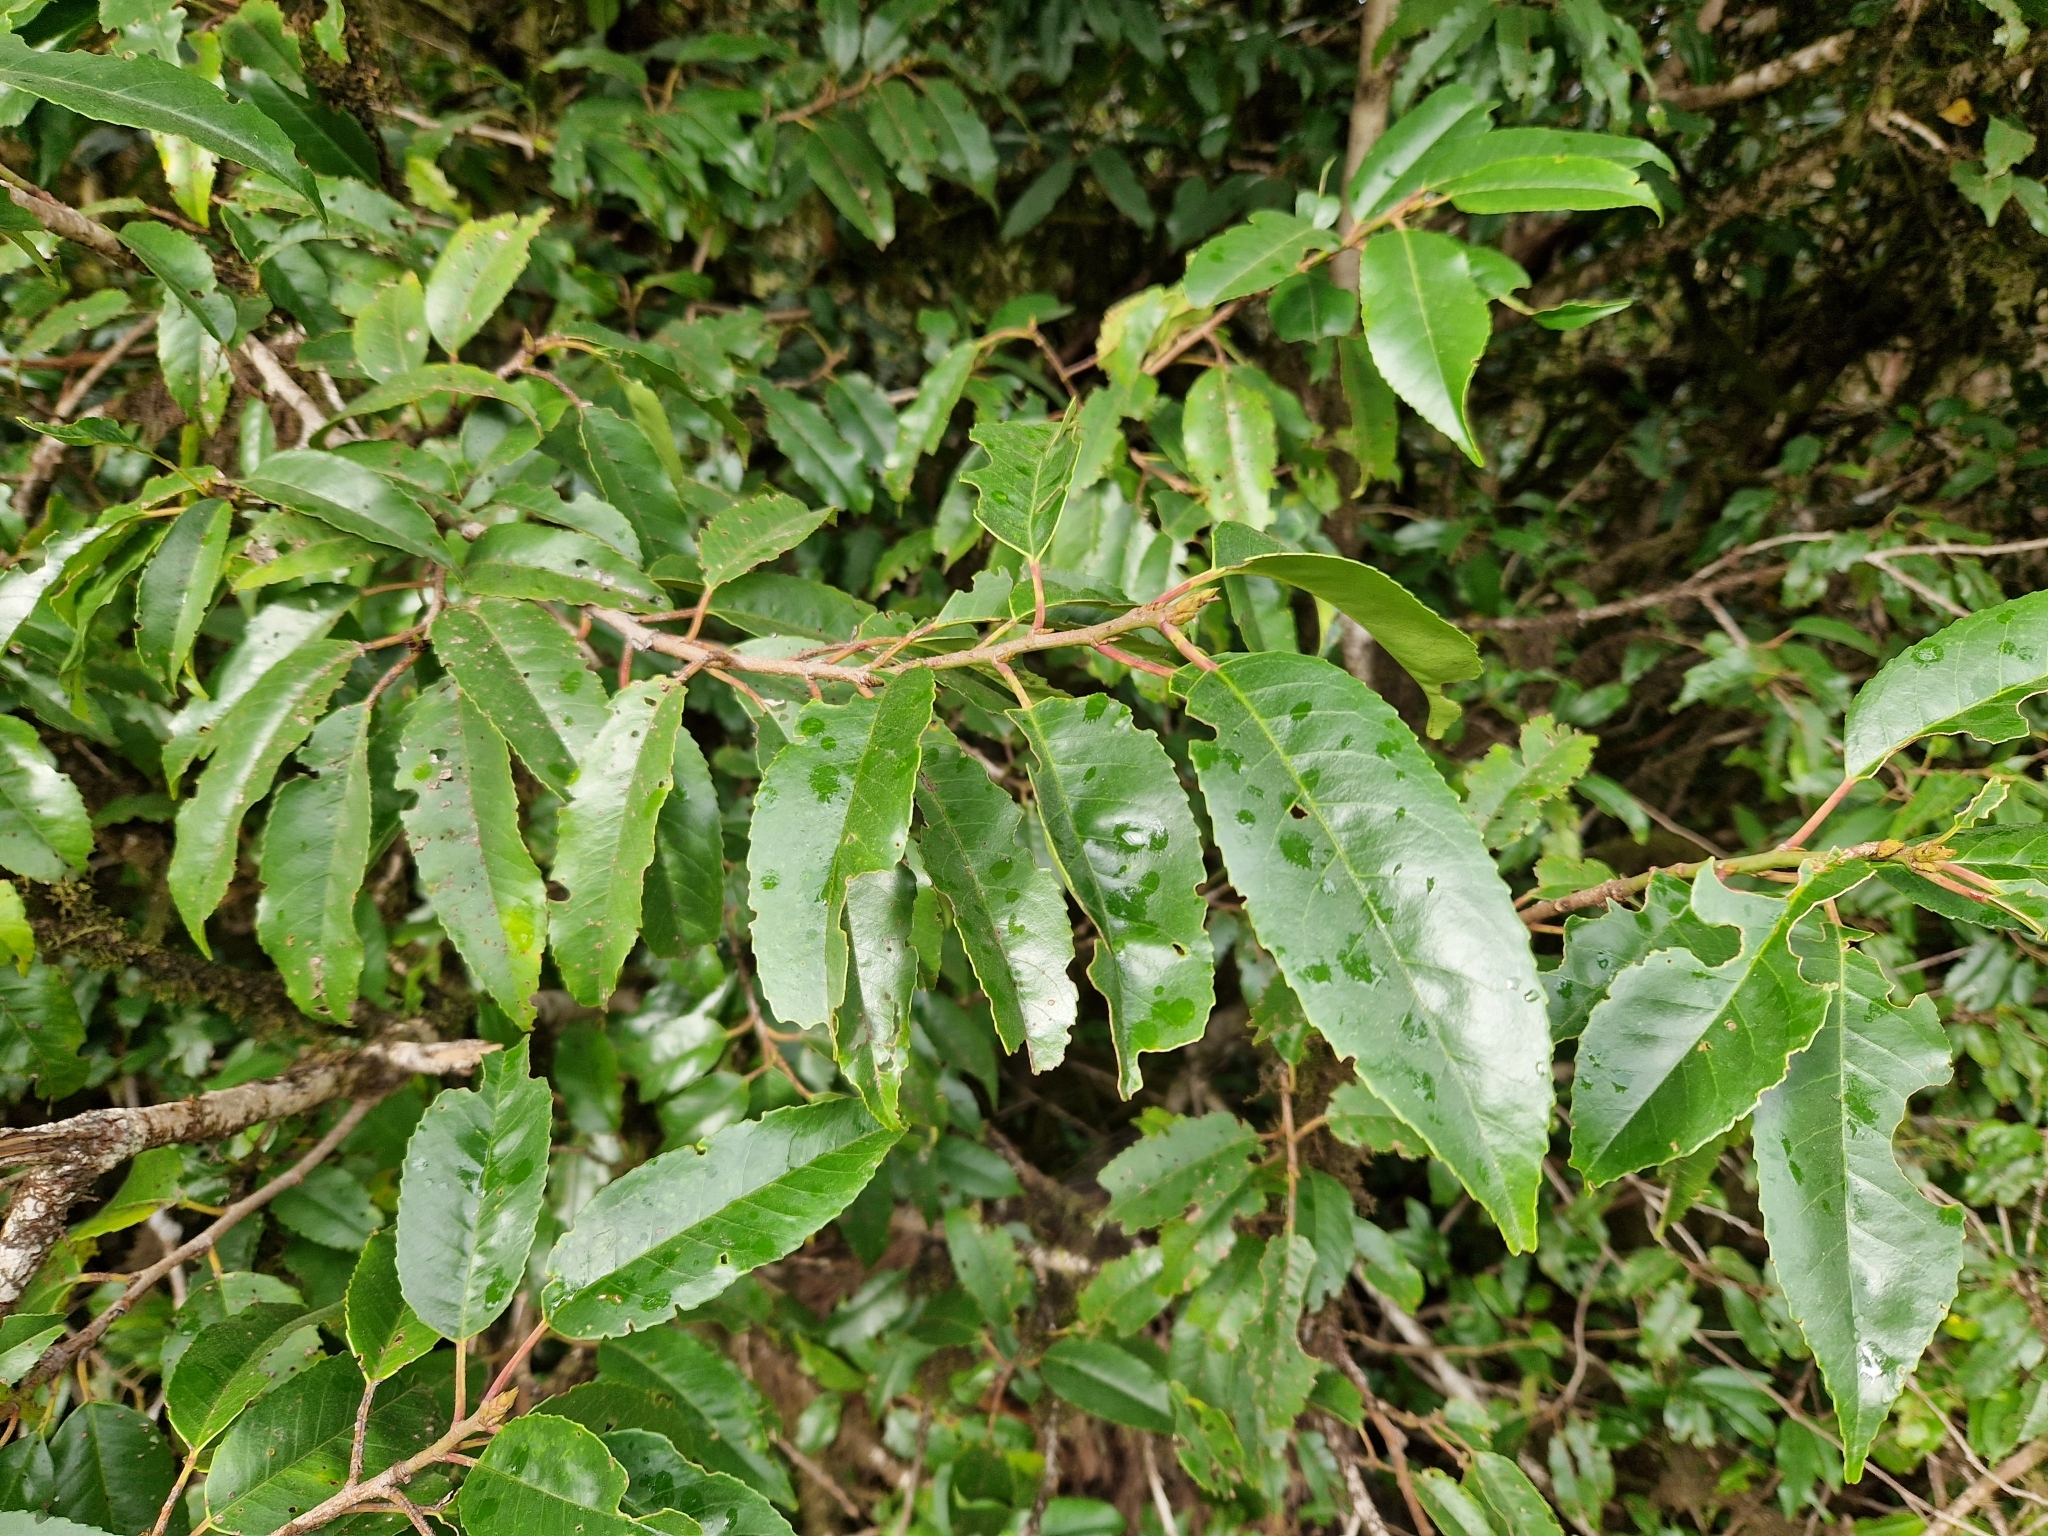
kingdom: Plantae
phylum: Tracheophyta
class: Magnoliopsida
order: Rosales
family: Rosaceae
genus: Prunus
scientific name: Prunus lusitanica
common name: Portugal laurel
